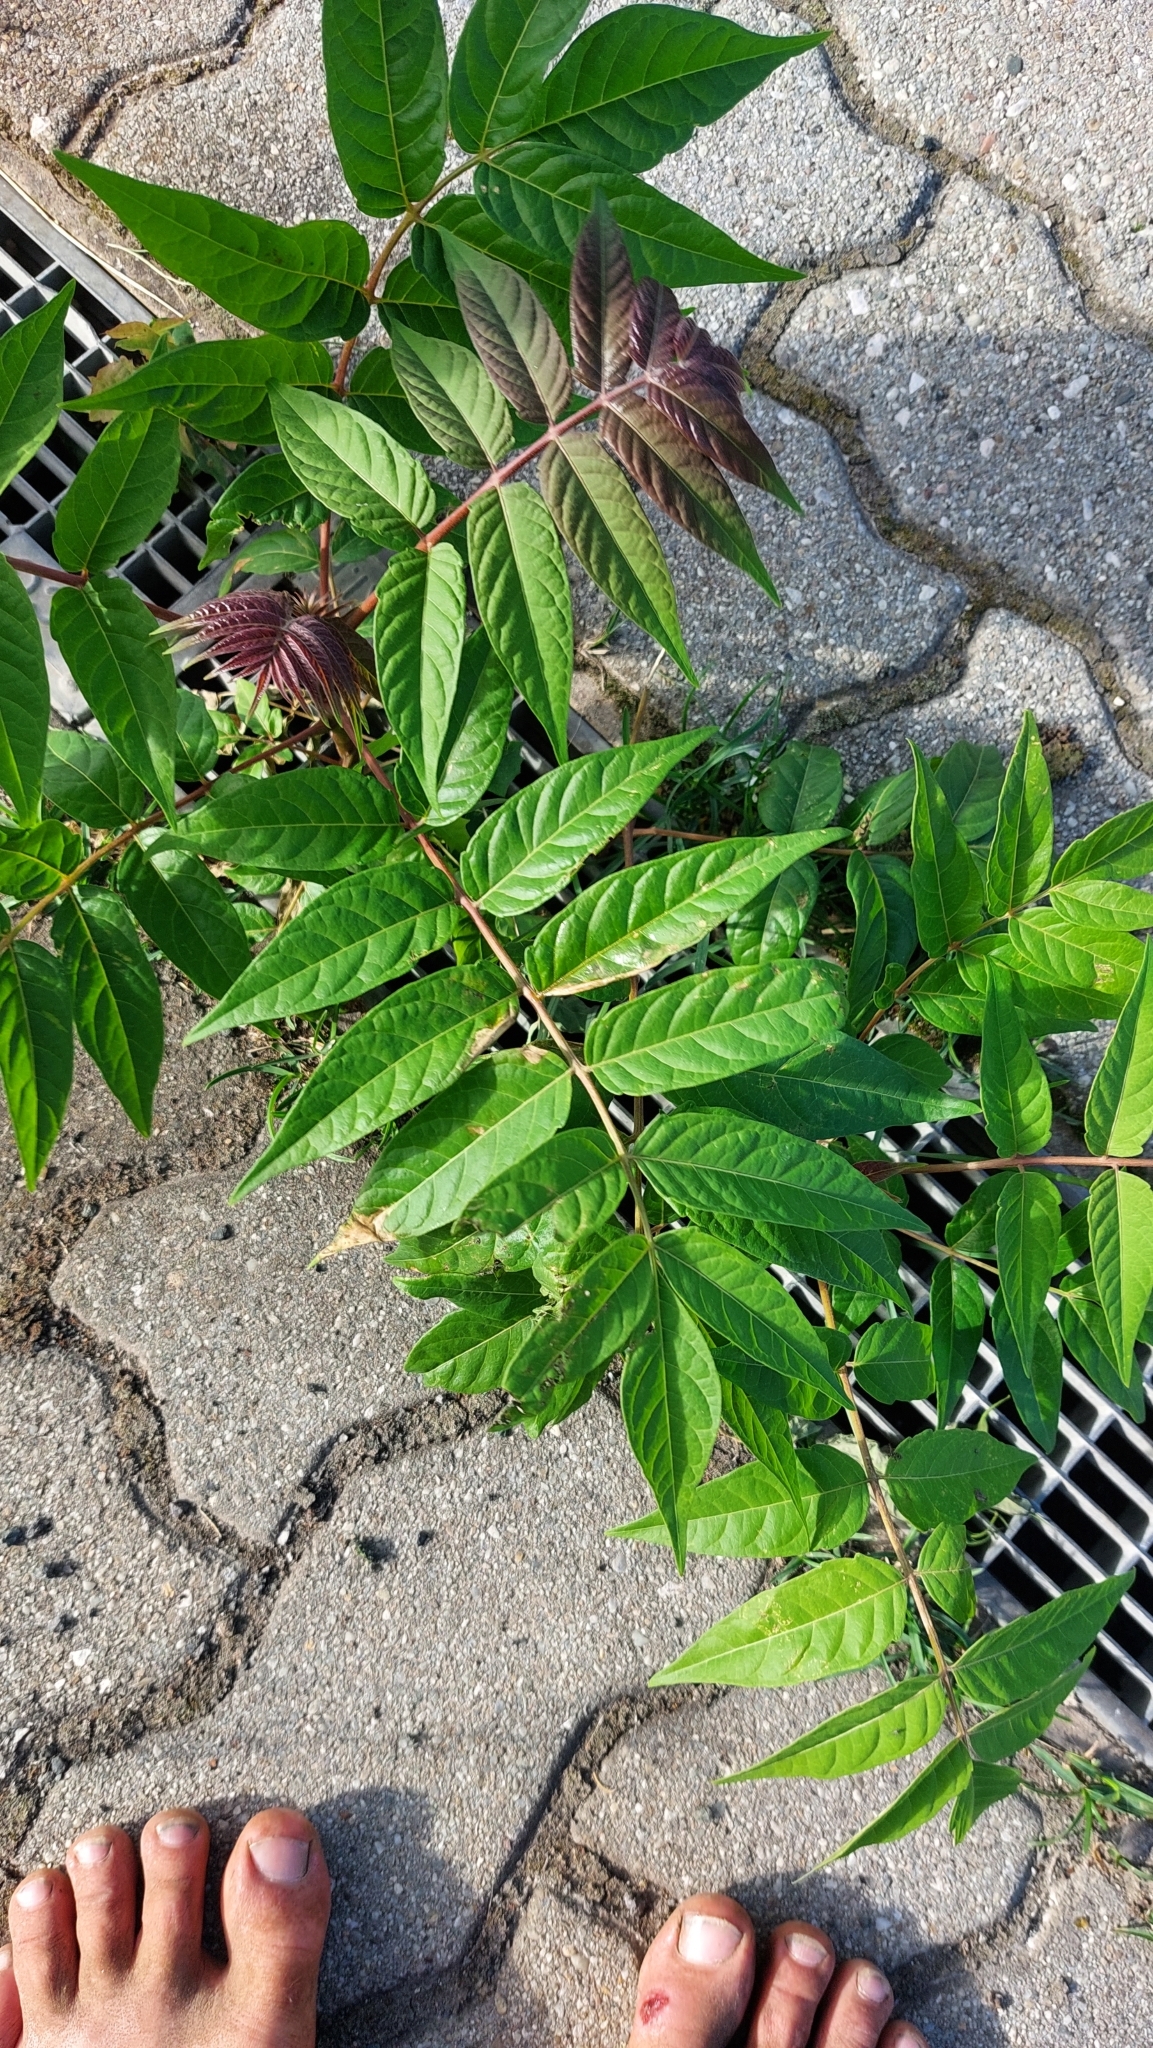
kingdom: Plantae
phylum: Tracheophyta
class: Magnoliopsida
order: Sapindales
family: Simaroubaceae
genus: Ailanthus
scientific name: Ailanthus altissima
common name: Tree-of-heaven
